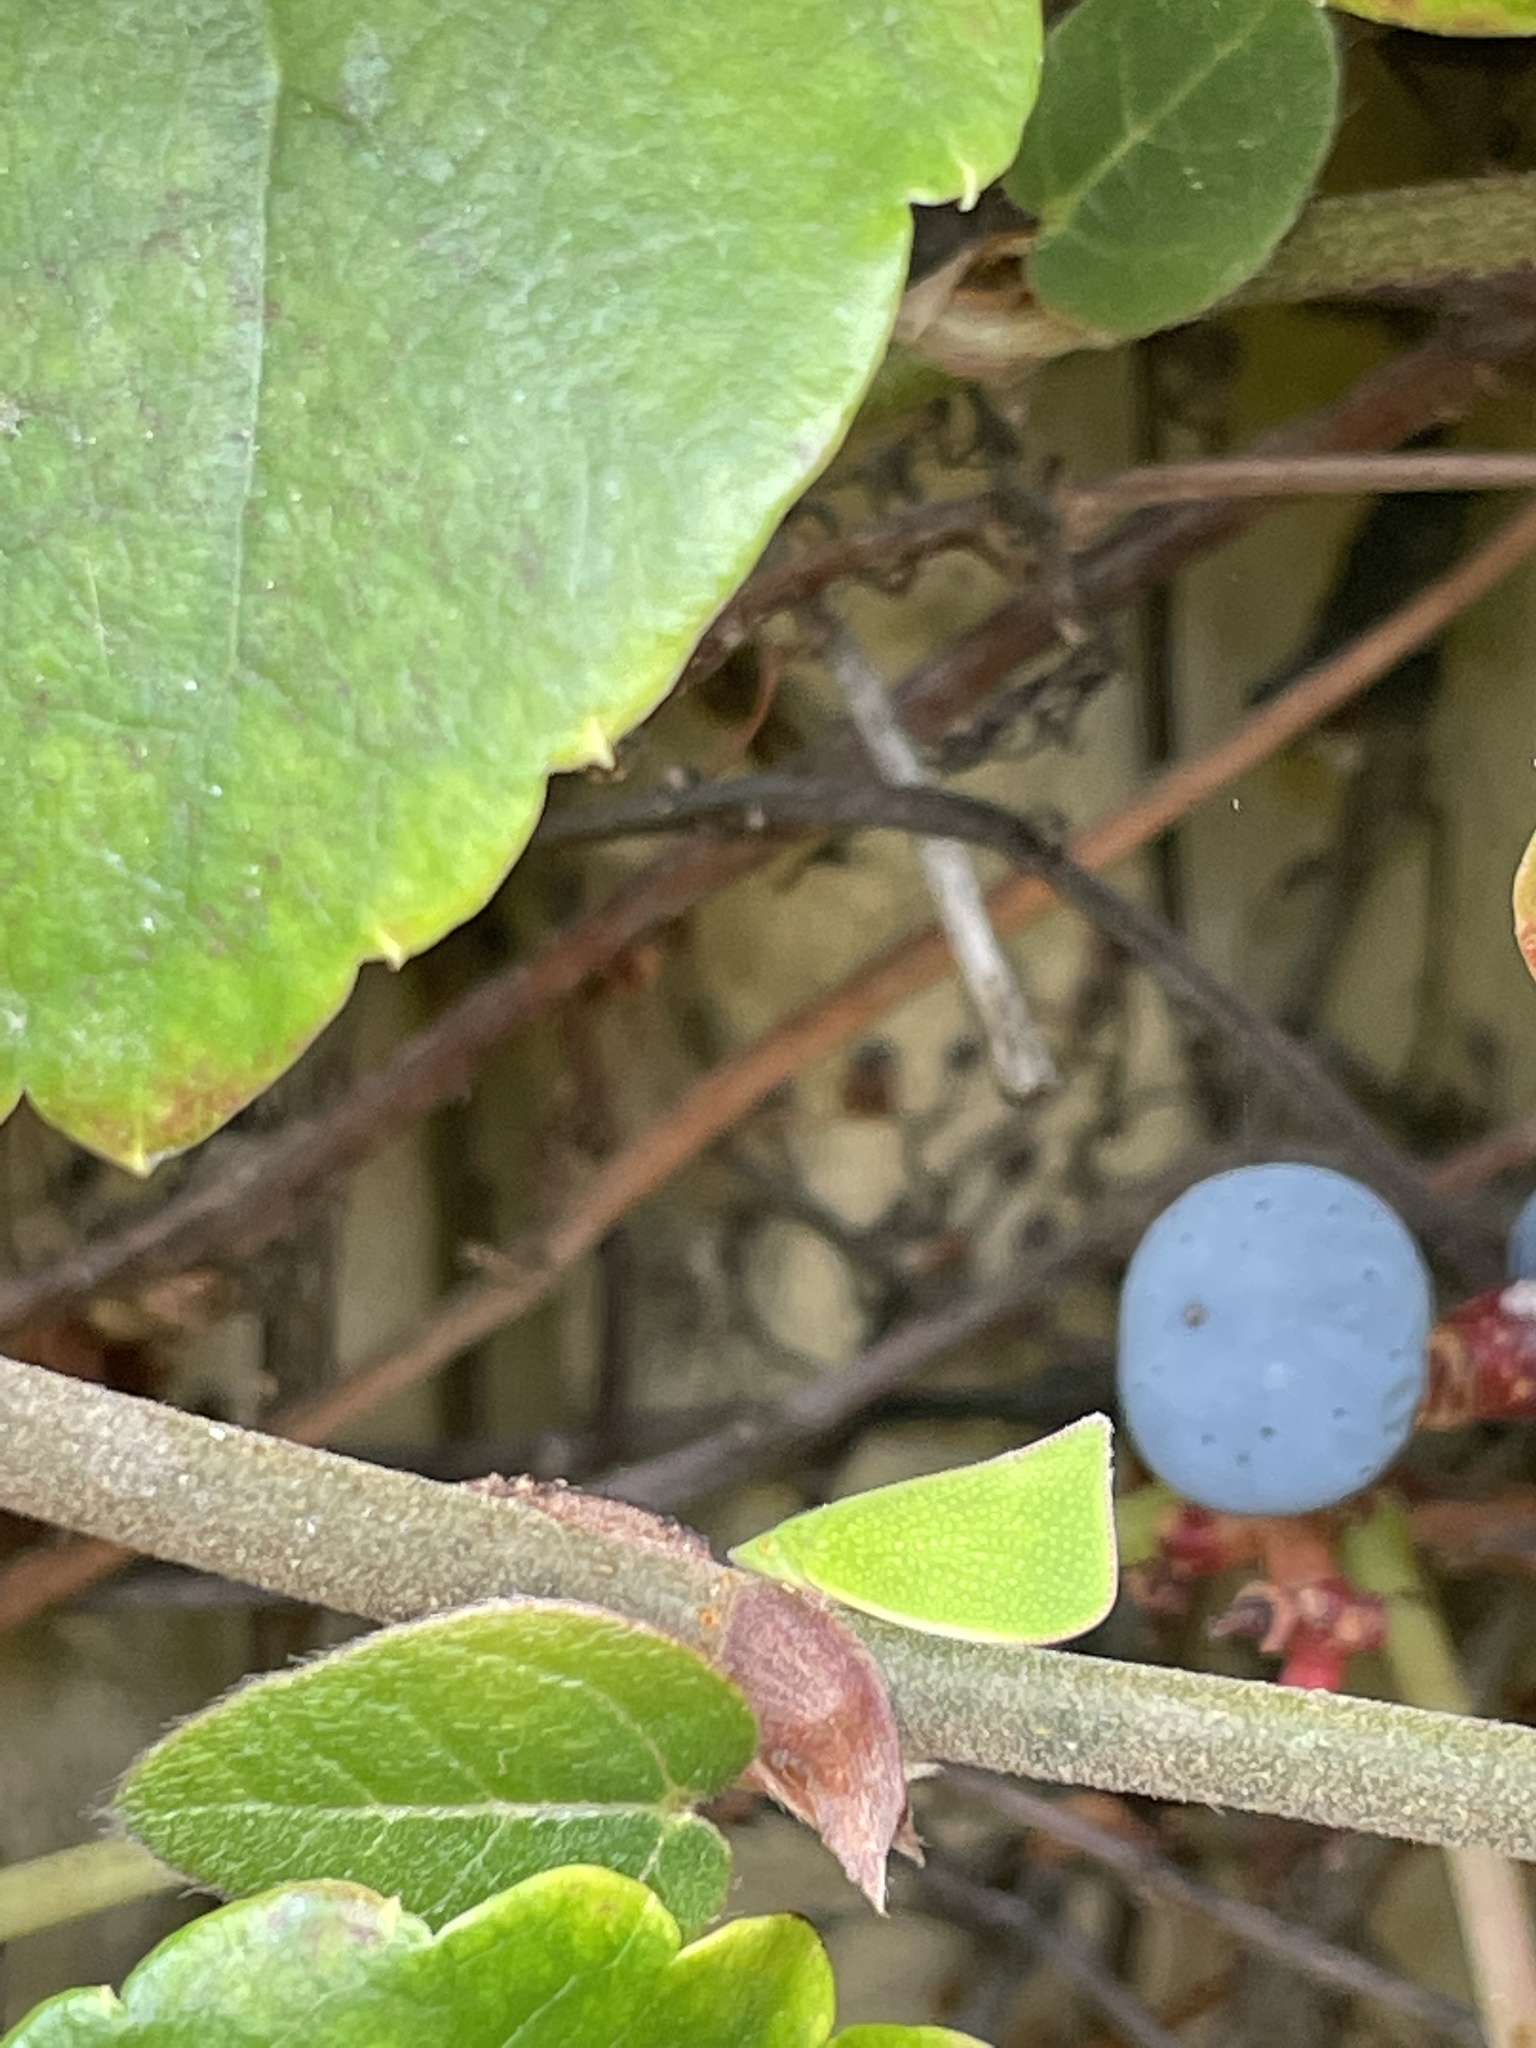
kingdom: Animalia
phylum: Arthropoda
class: Insecta
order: Hemiptera
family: Flatidae
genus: Siphanta
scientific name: Siphanta acuta
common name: Torpedo bug
